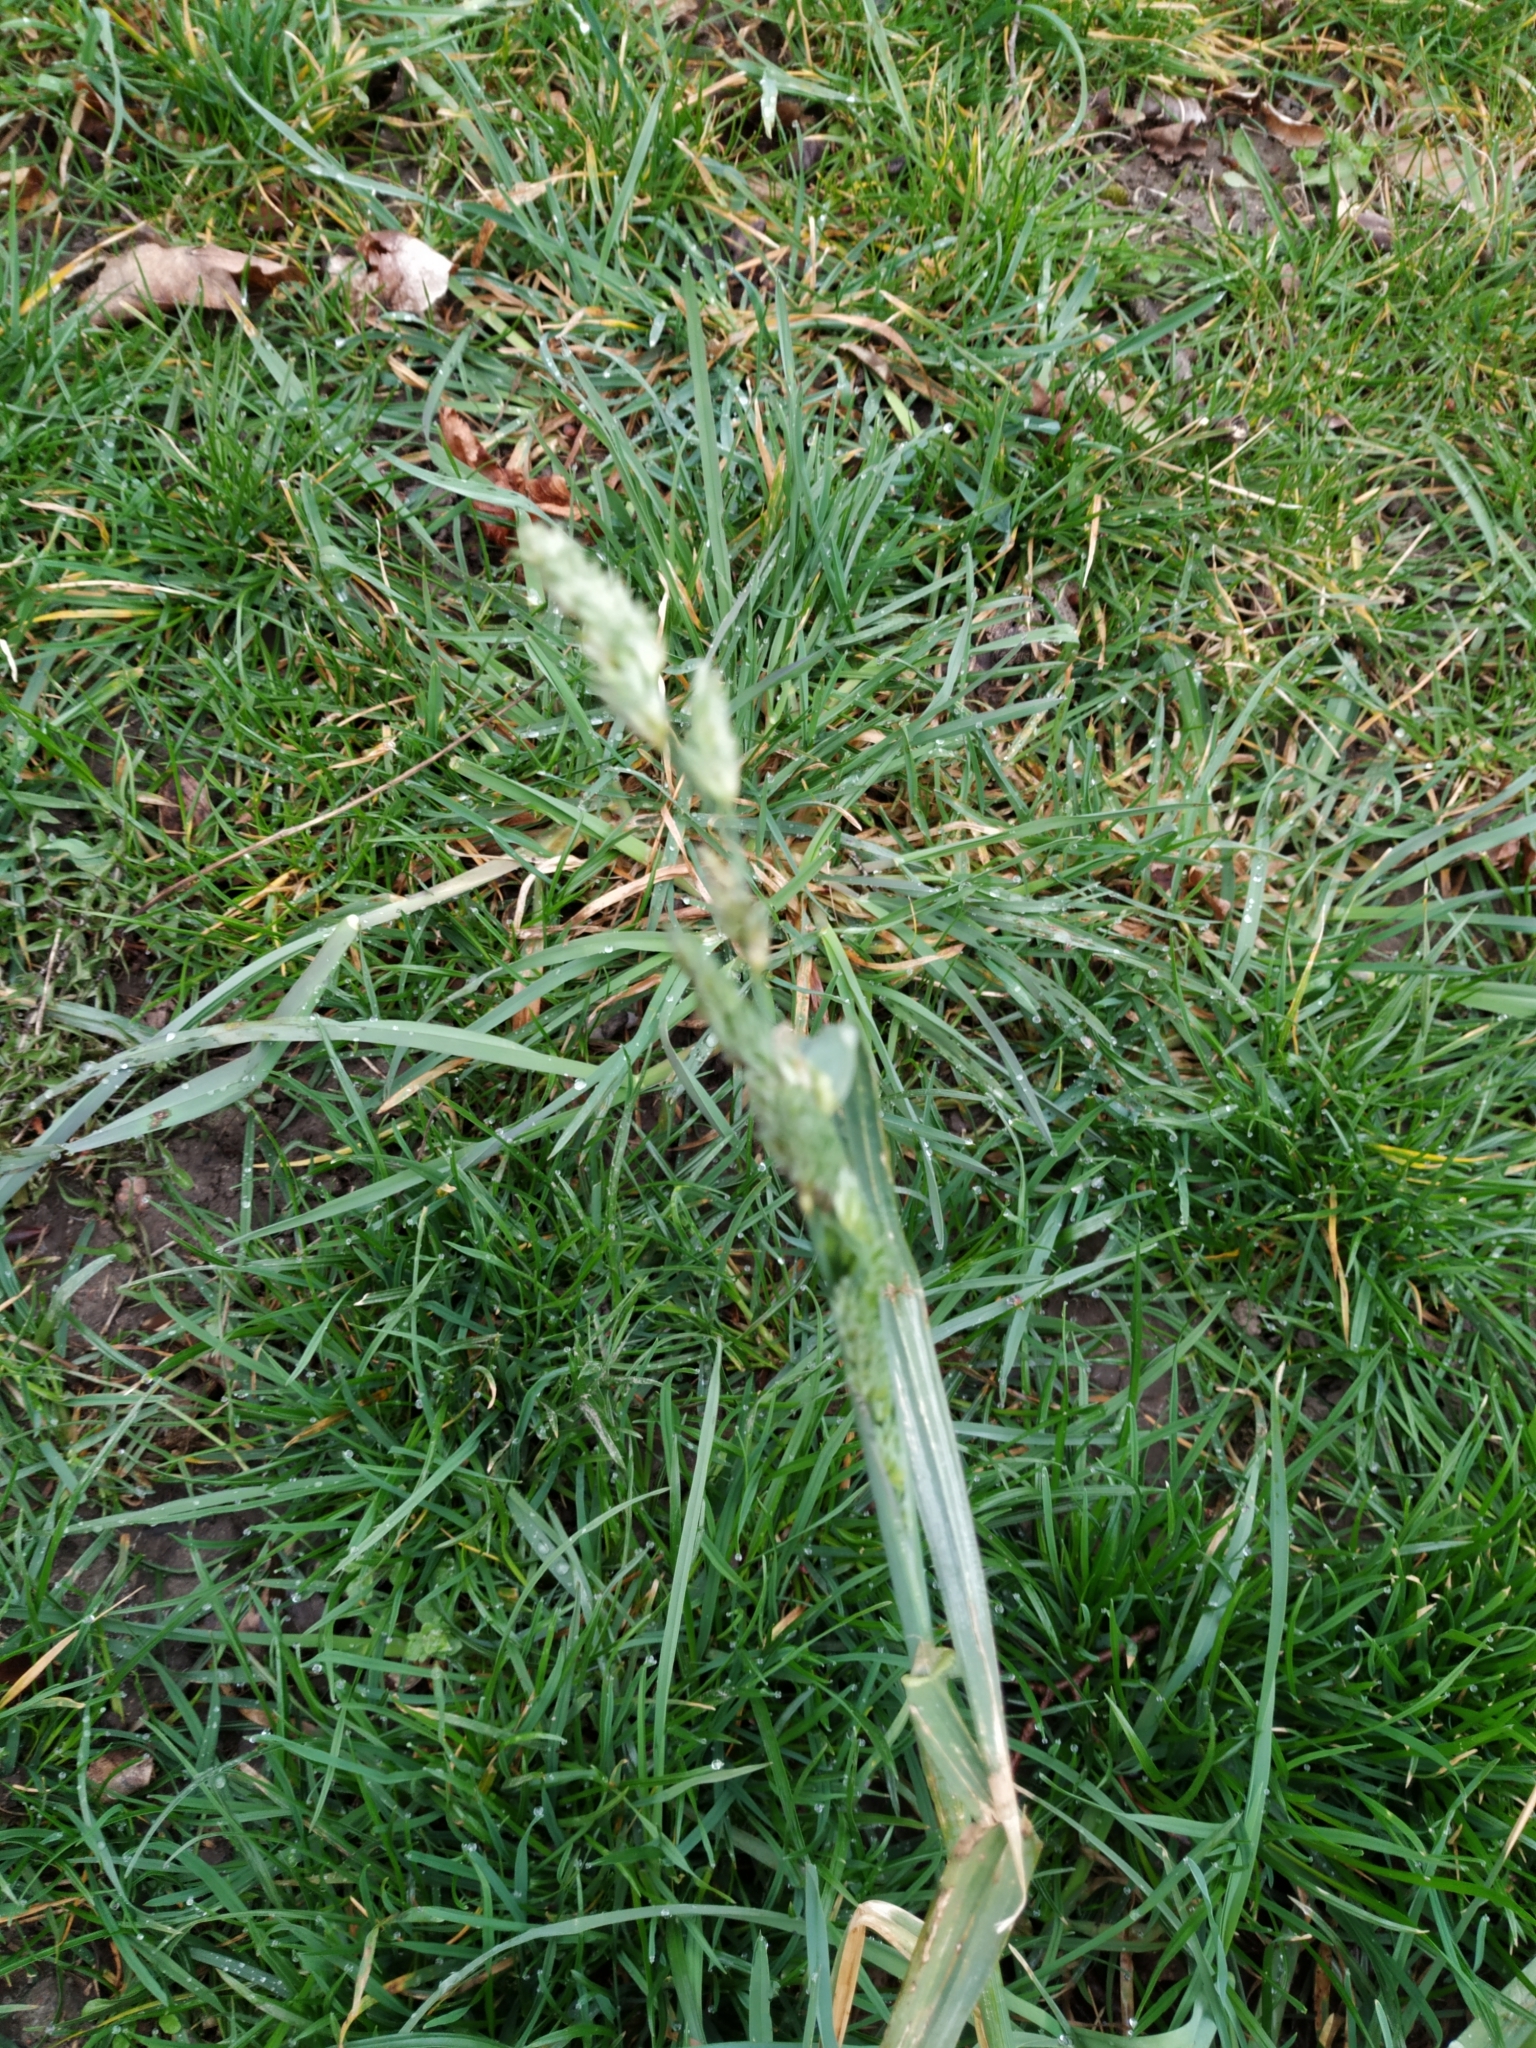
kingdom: Plantae
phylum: Tracheophyta
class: Liliopsida
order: Poales
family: Poaceae
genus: Dactylis
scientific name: Dactylis glomerata
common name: Orchardgrass
